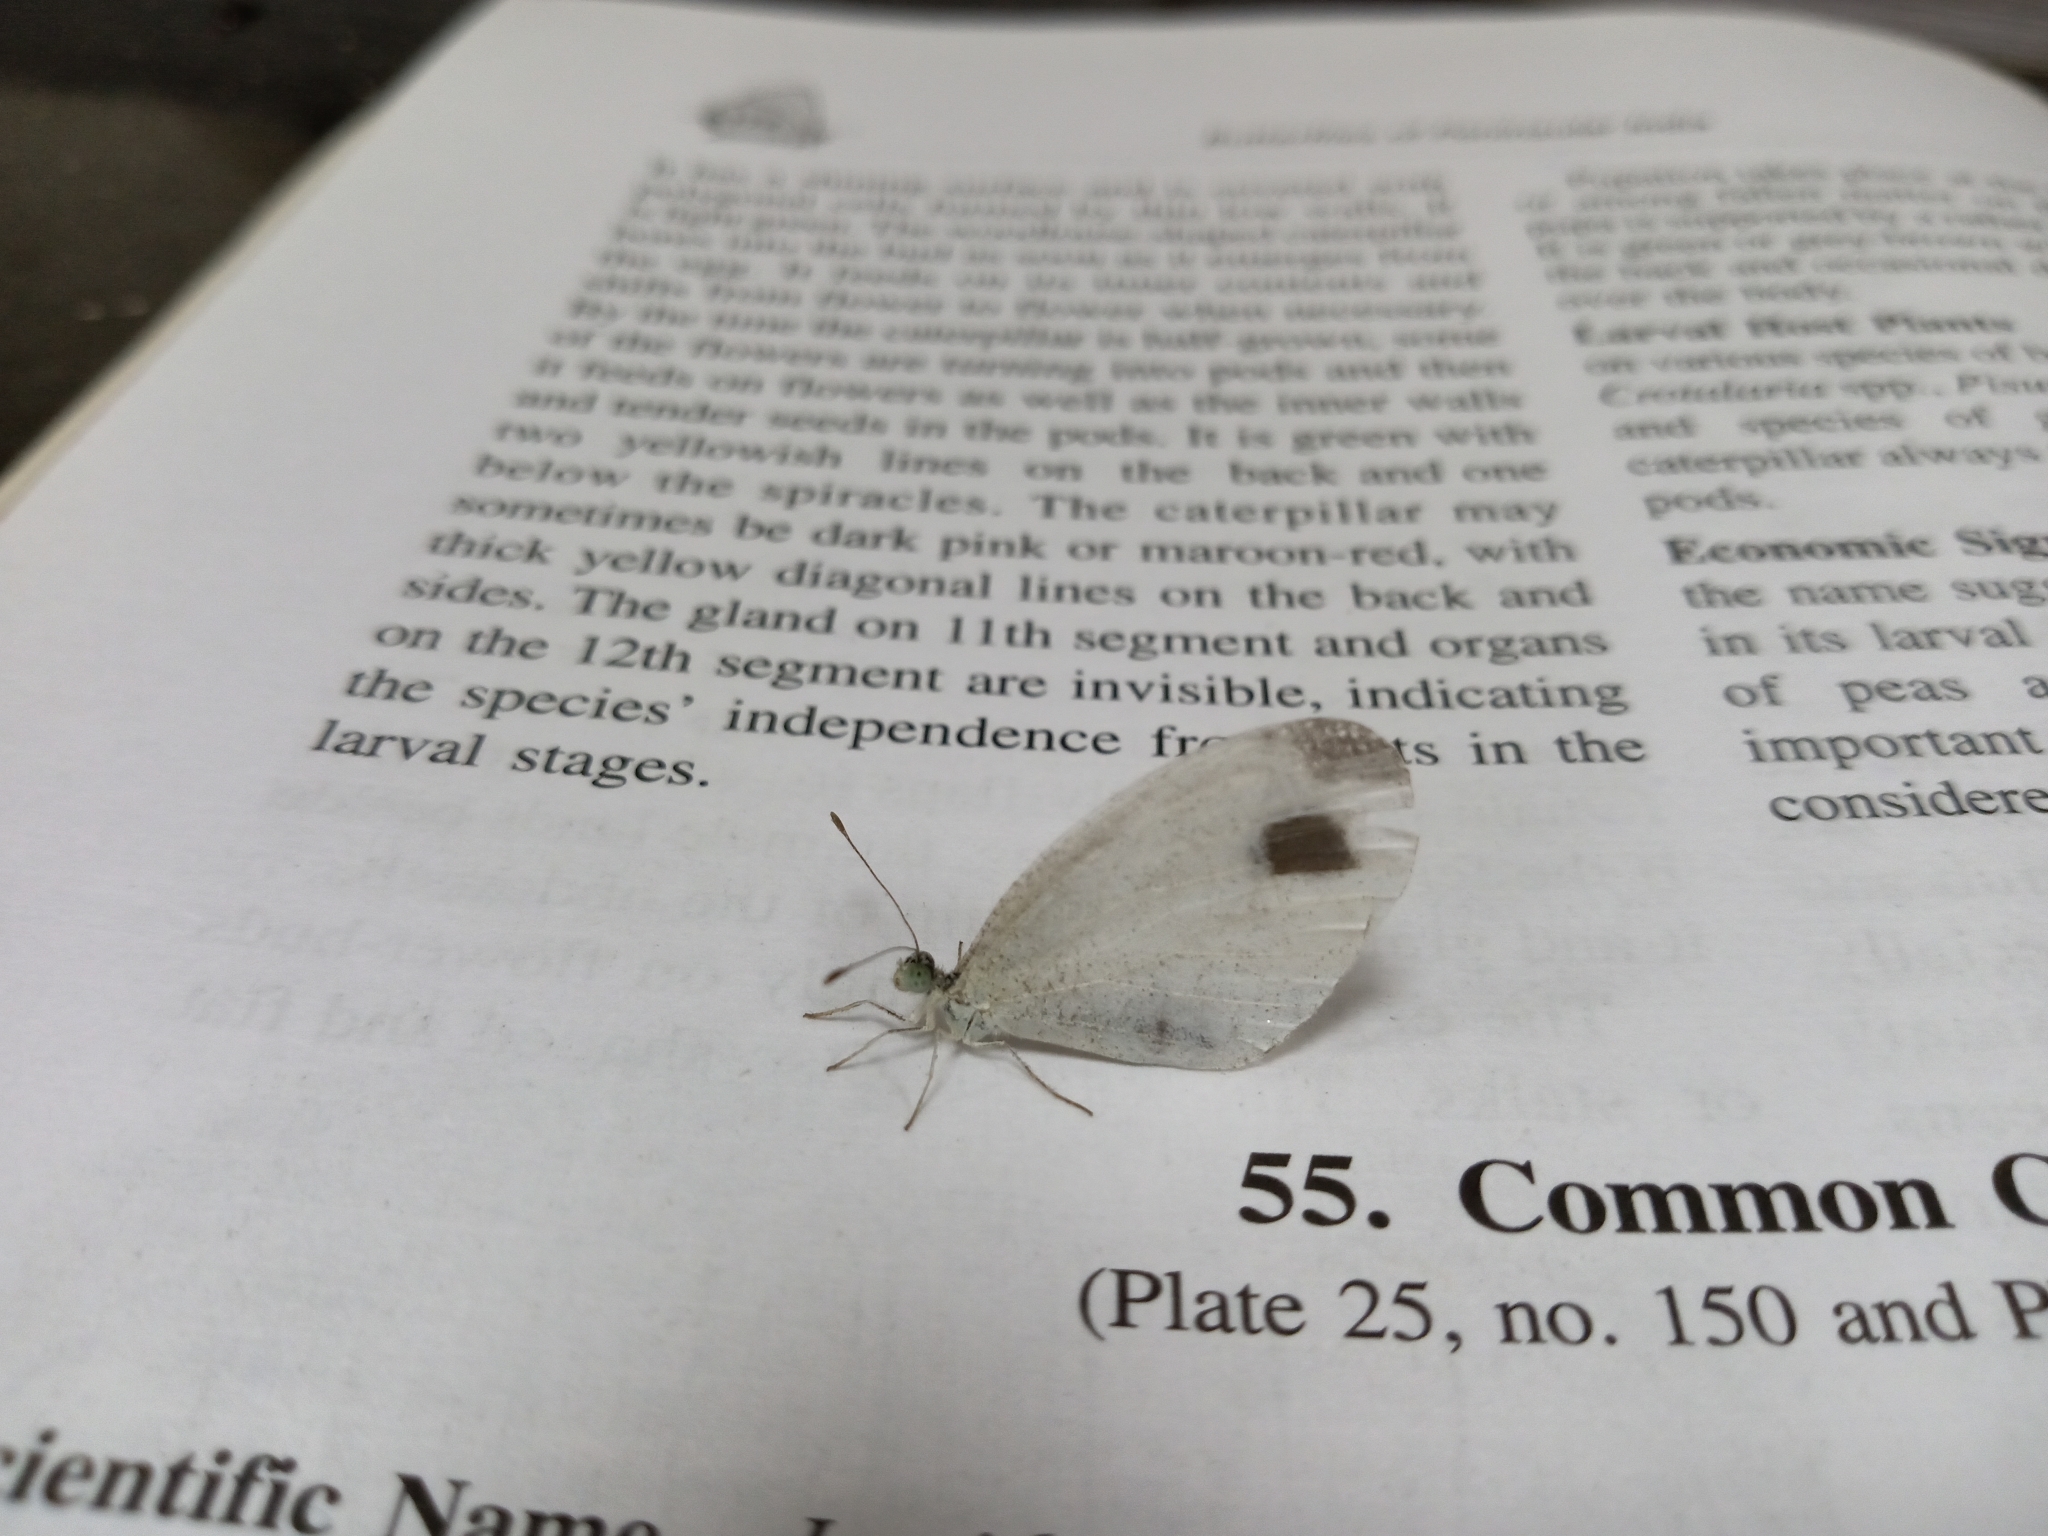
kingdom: Animalia
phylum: Arthropoda
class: Insecta
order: Lepidoptera
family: Pieridae
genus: Leptosia
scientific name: Leptosia nina
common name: Psyche
